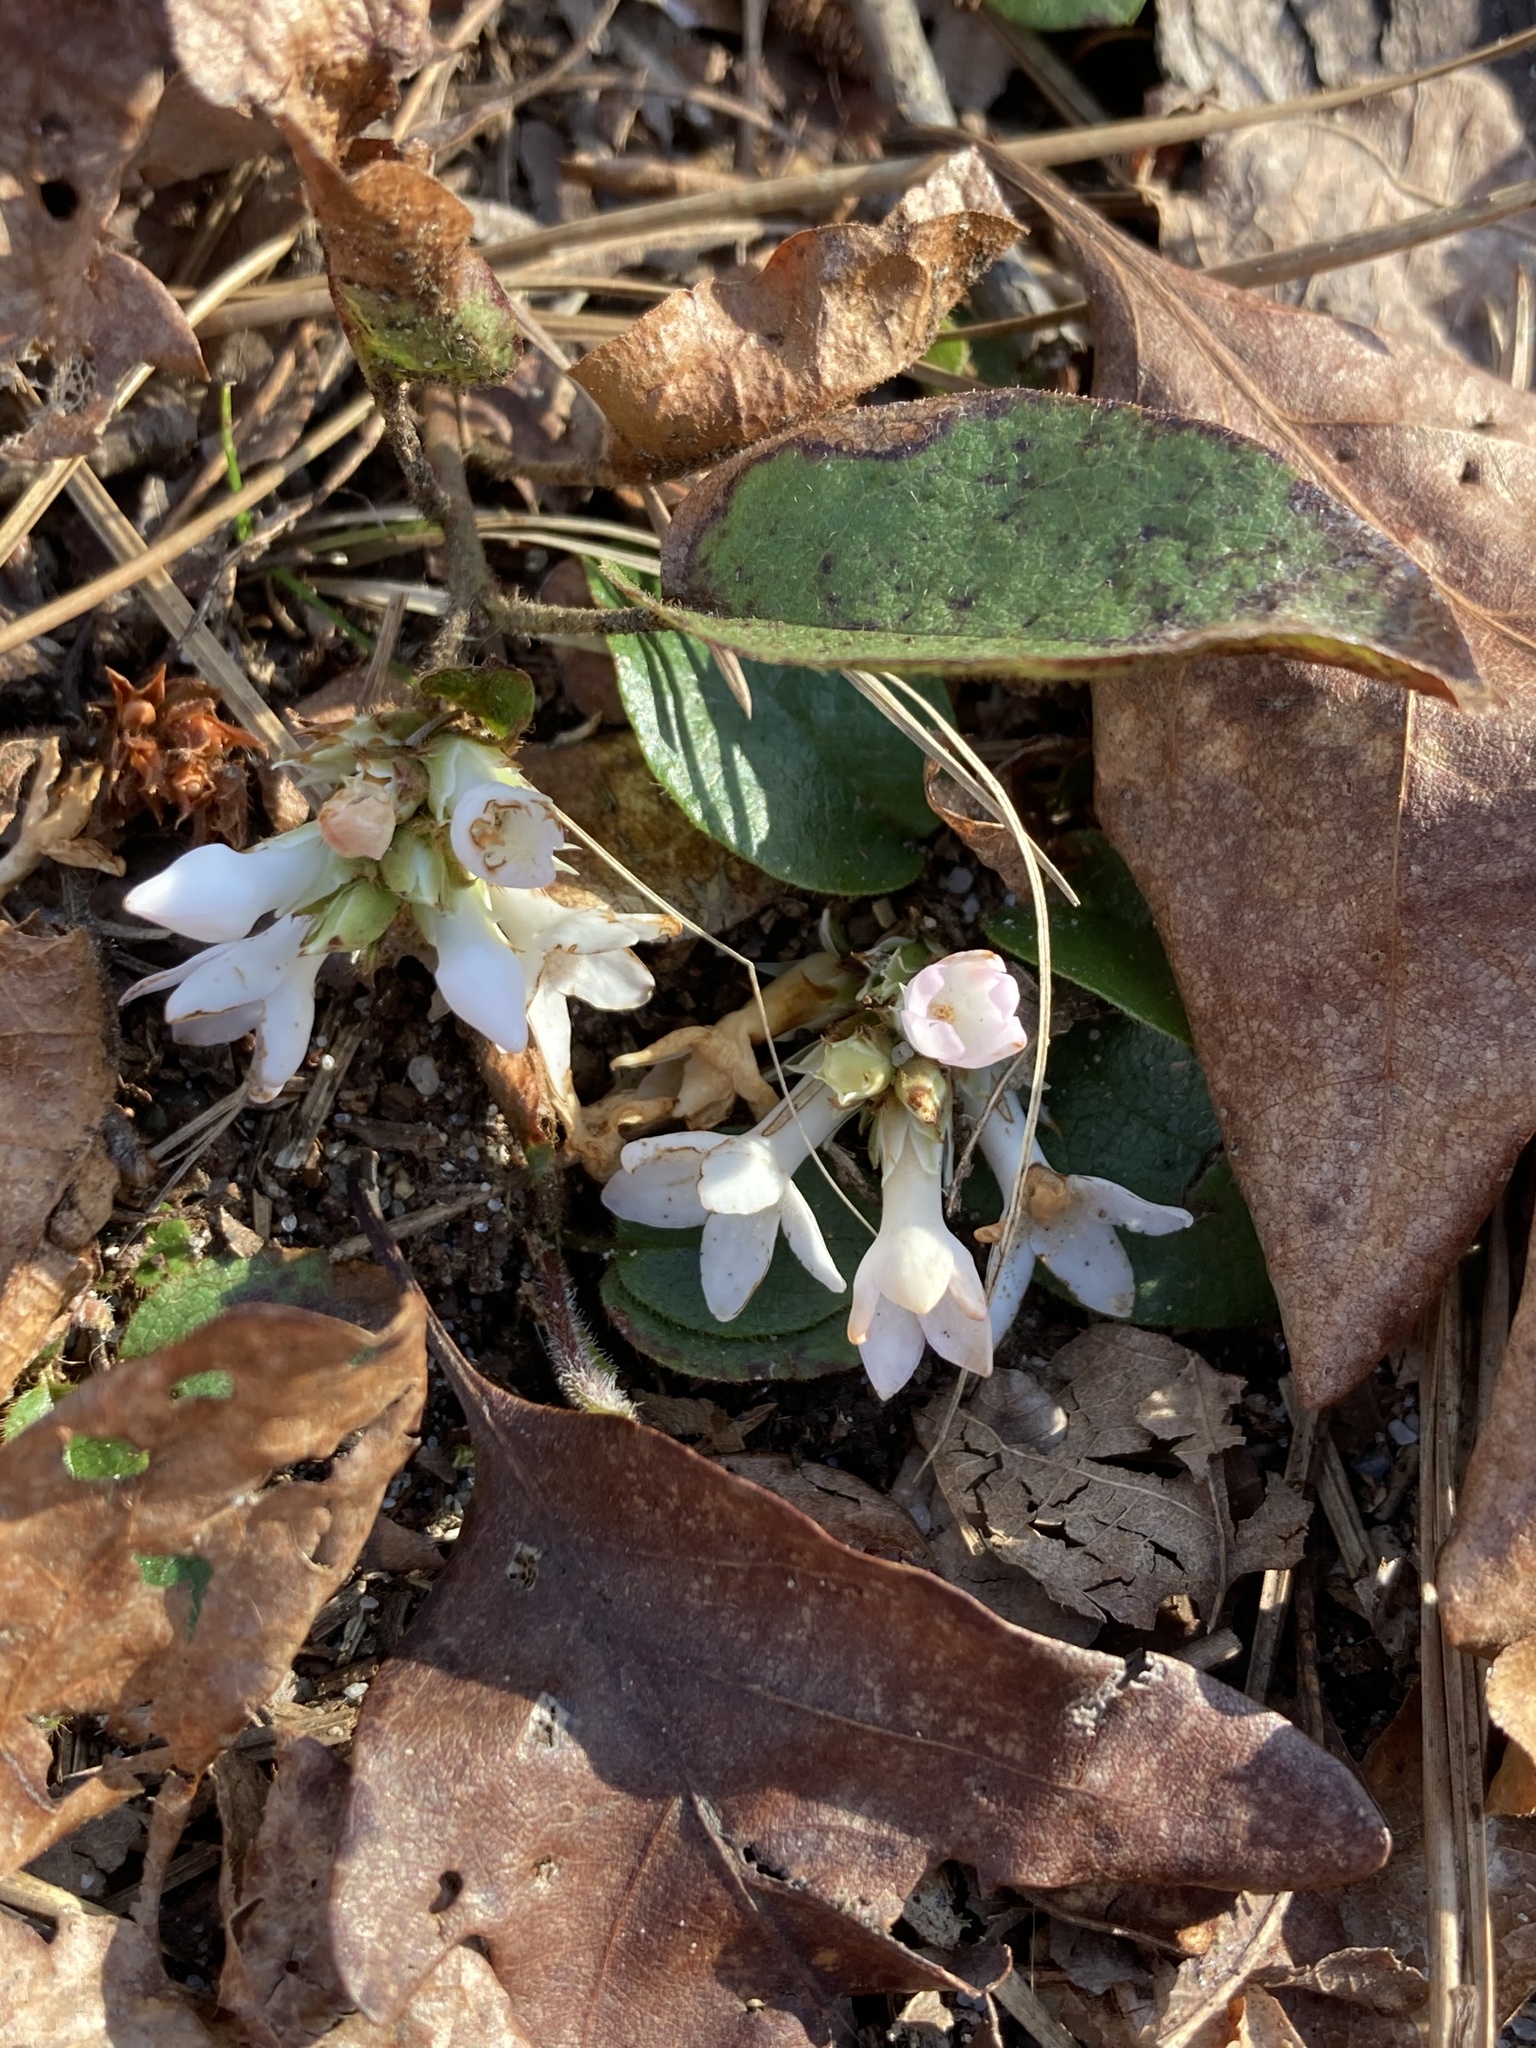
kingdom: Plantae
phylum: Tracheophyta
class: Magnoliopsida
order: Ericales
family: Ericaceae
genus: Epigaea
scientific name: Epigaea repens
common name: Gravelroot
